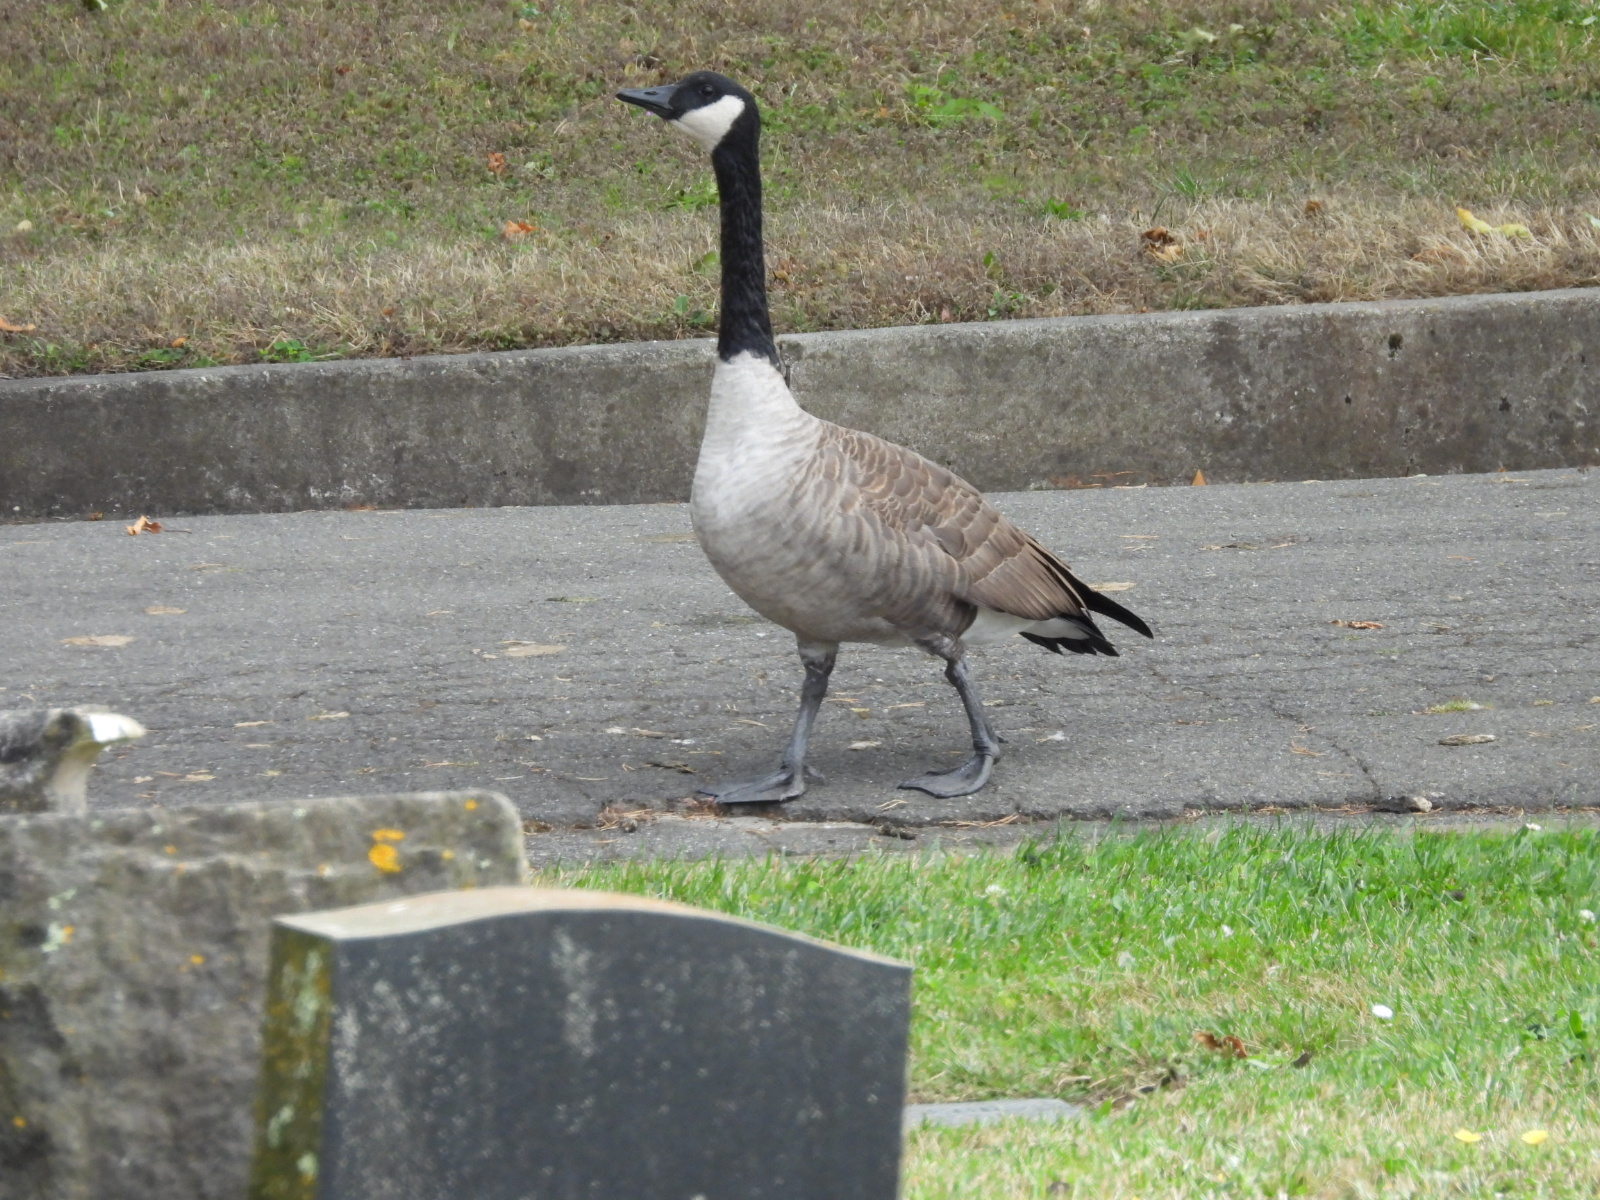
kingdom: Animalia
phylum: Chordata
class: Aves
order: Anseriformes
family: Anatidae
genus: Branta
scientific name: Branta canadensis
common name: Canada goose
